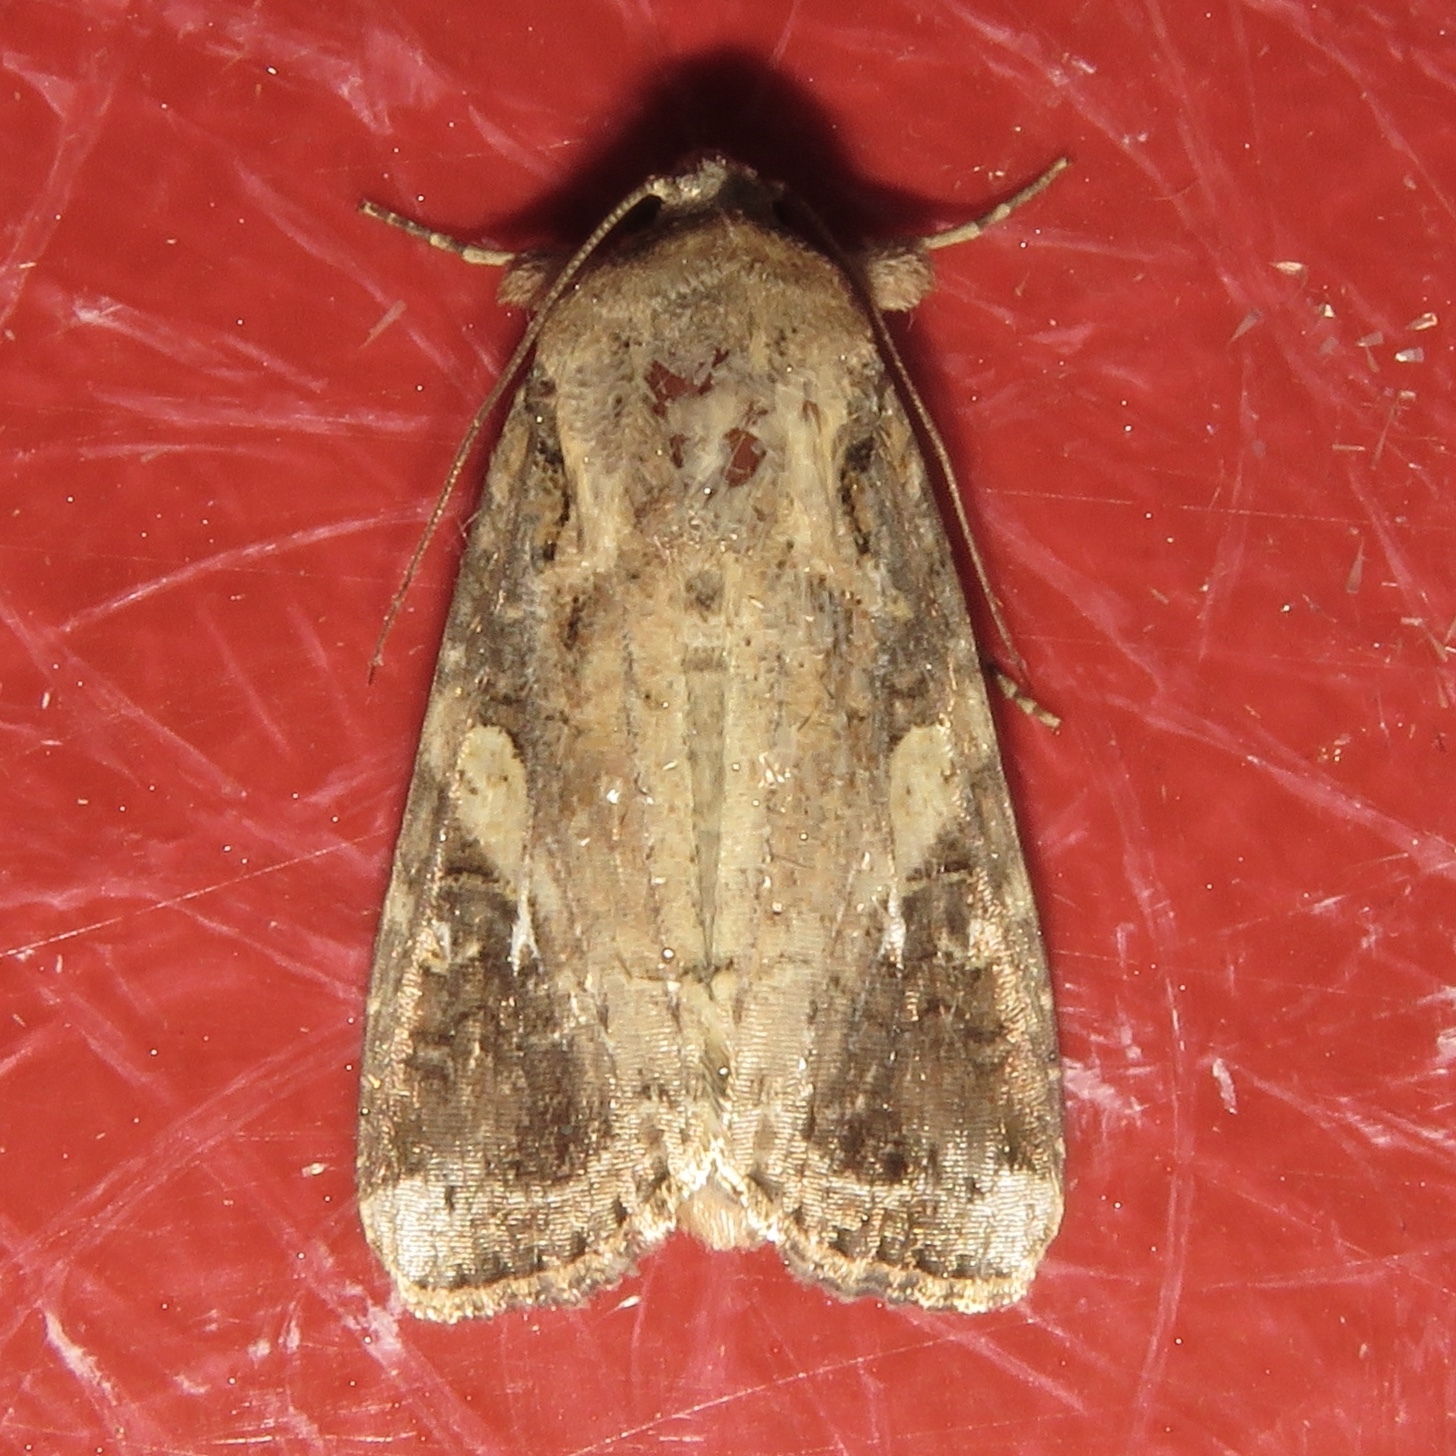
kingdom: Animalia
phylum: Arthropoda
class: Insecta
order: Lepidoptera
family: Noctuidae
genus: Spodoptera
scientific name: Spodoptera frugiperda
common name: Fall armyworm
